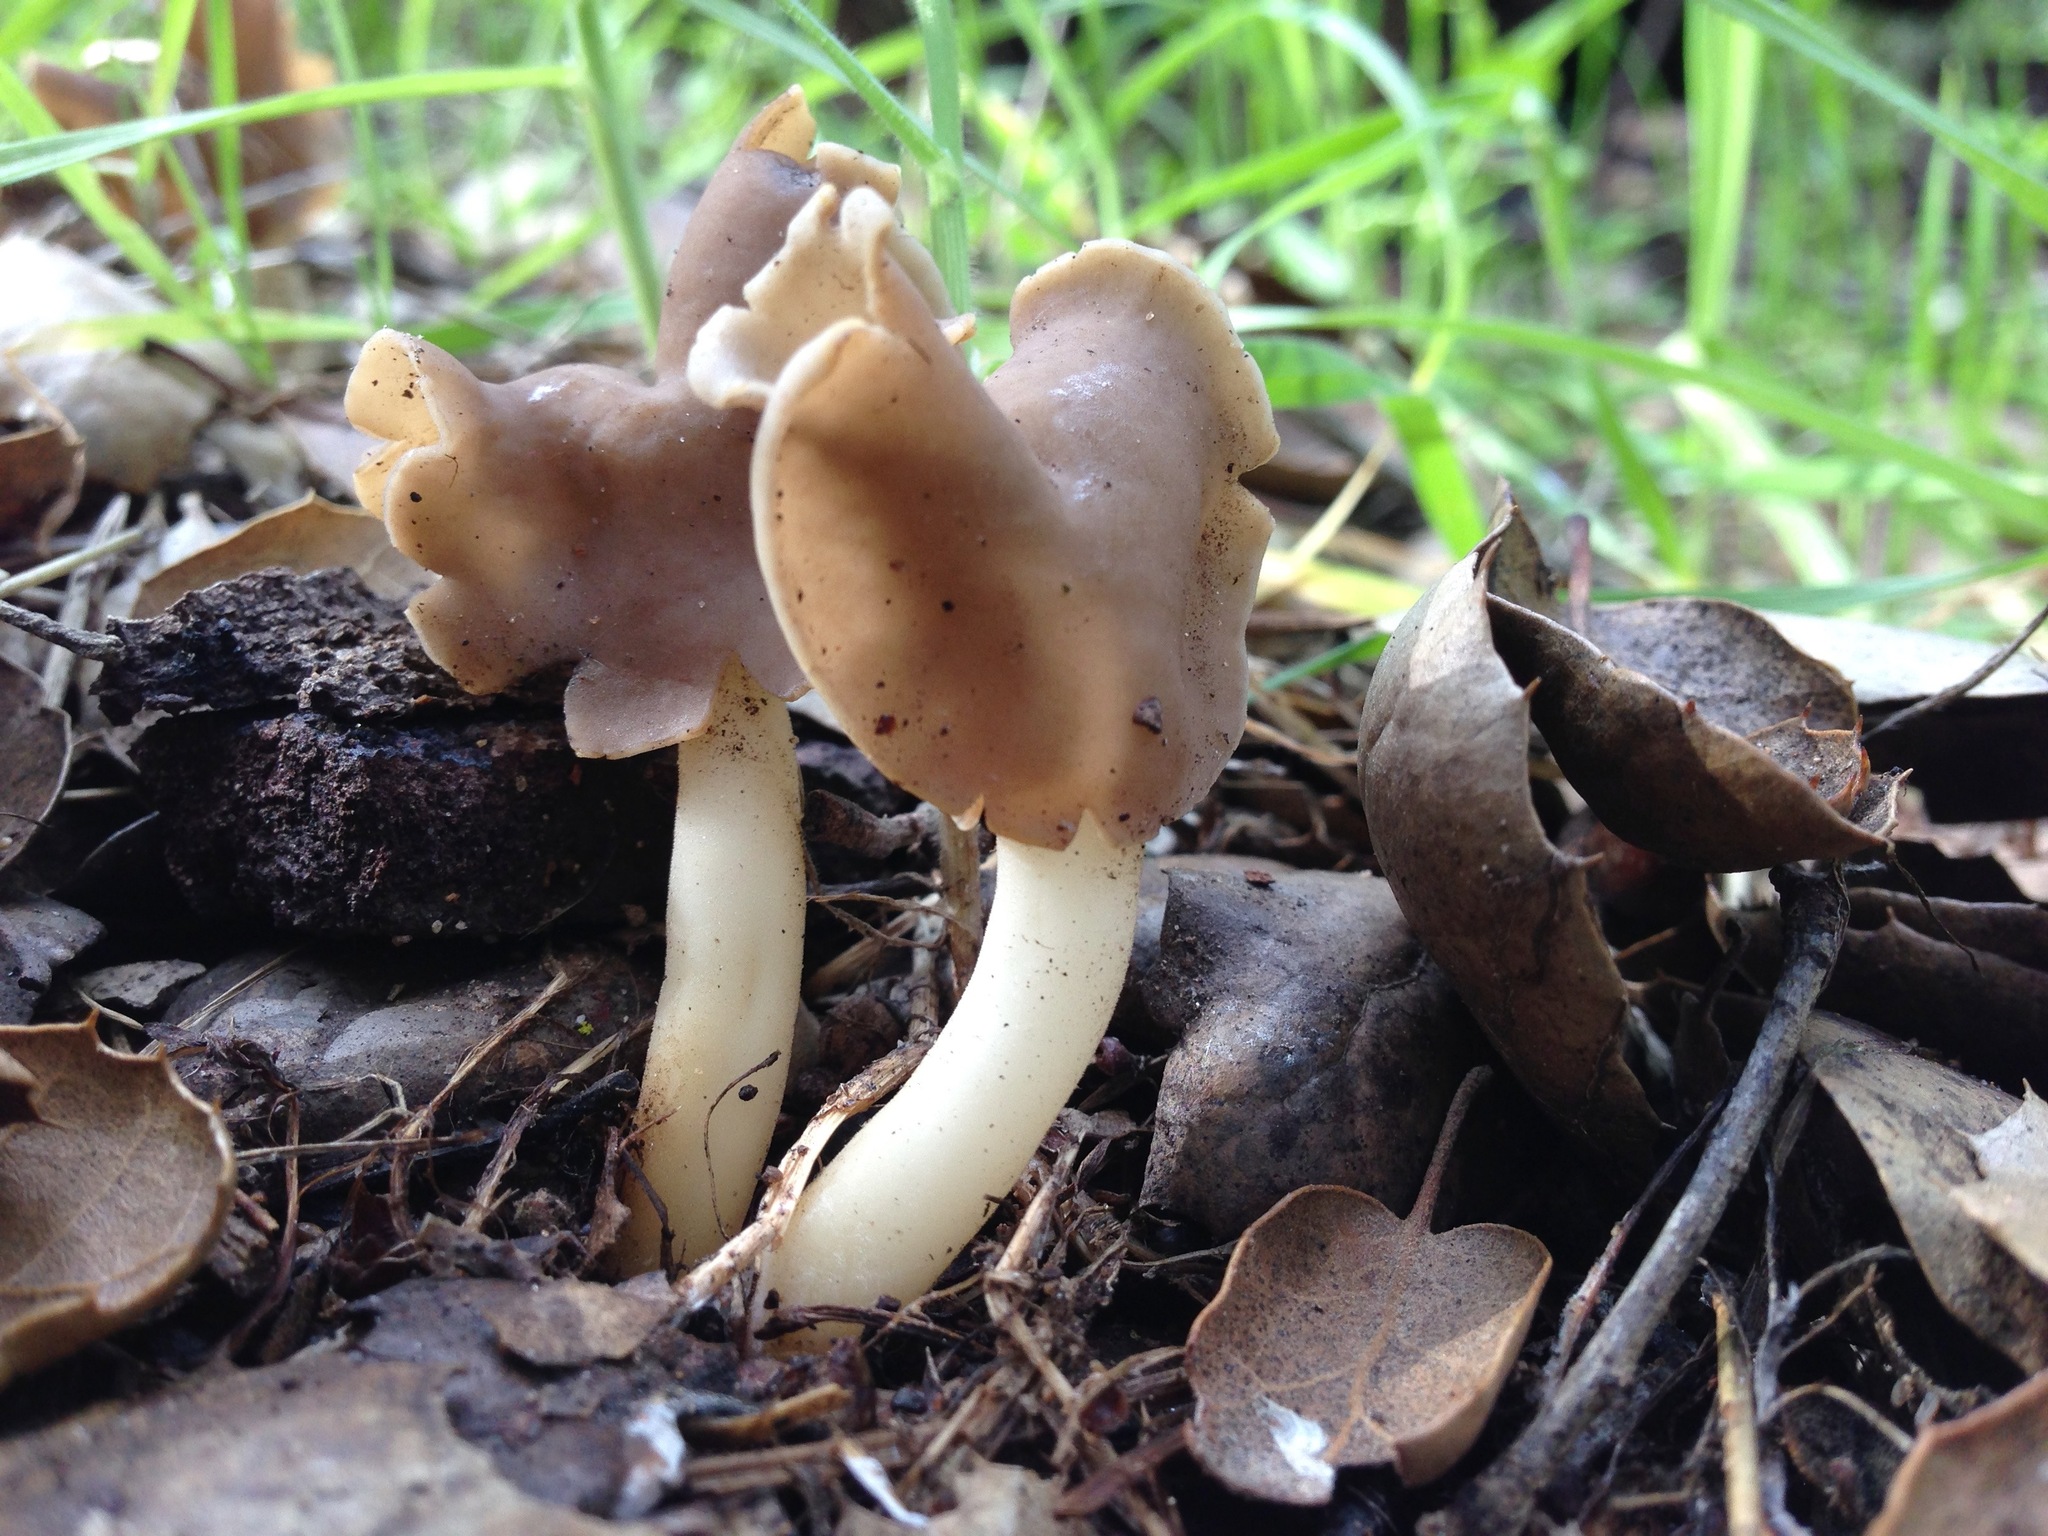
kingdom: Fungi
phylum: Ascomycota
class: Pezizomycetes
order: Pezizales
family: Helvellaceae
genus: Helvella
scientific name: Helvella compressa
